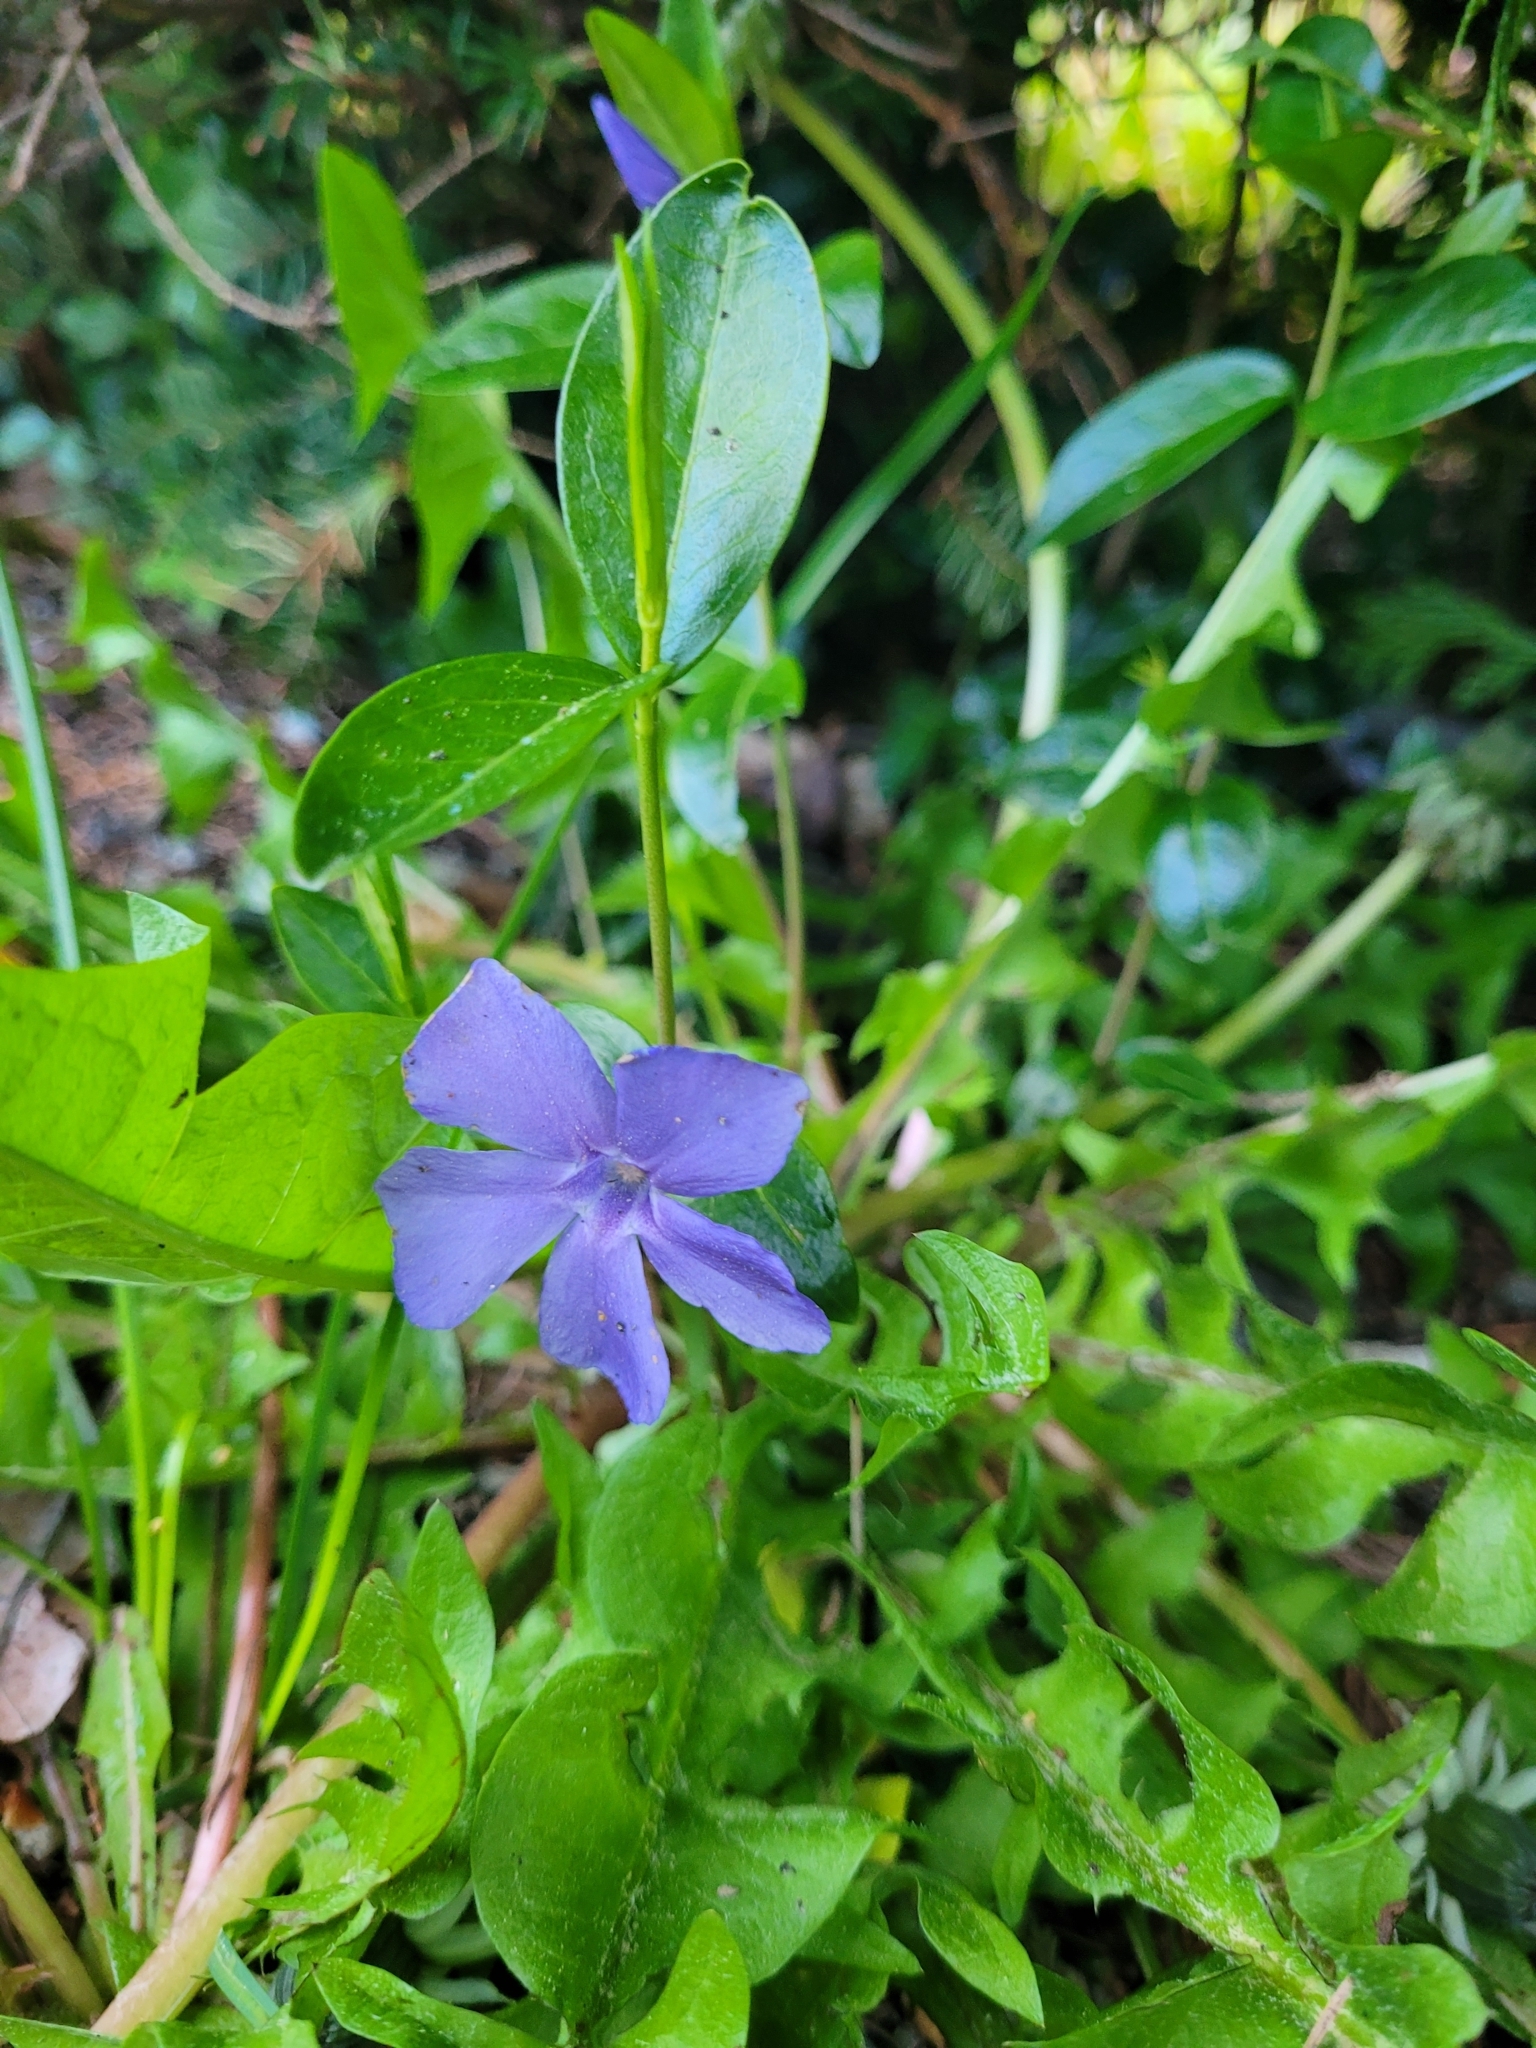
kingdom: Plantae
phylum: Tracheophyta
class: Magnoliopsida
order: Gentianales
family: Apocynaceae
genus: Vinca
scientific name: Vinca minor
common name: Lesser periwinkle
